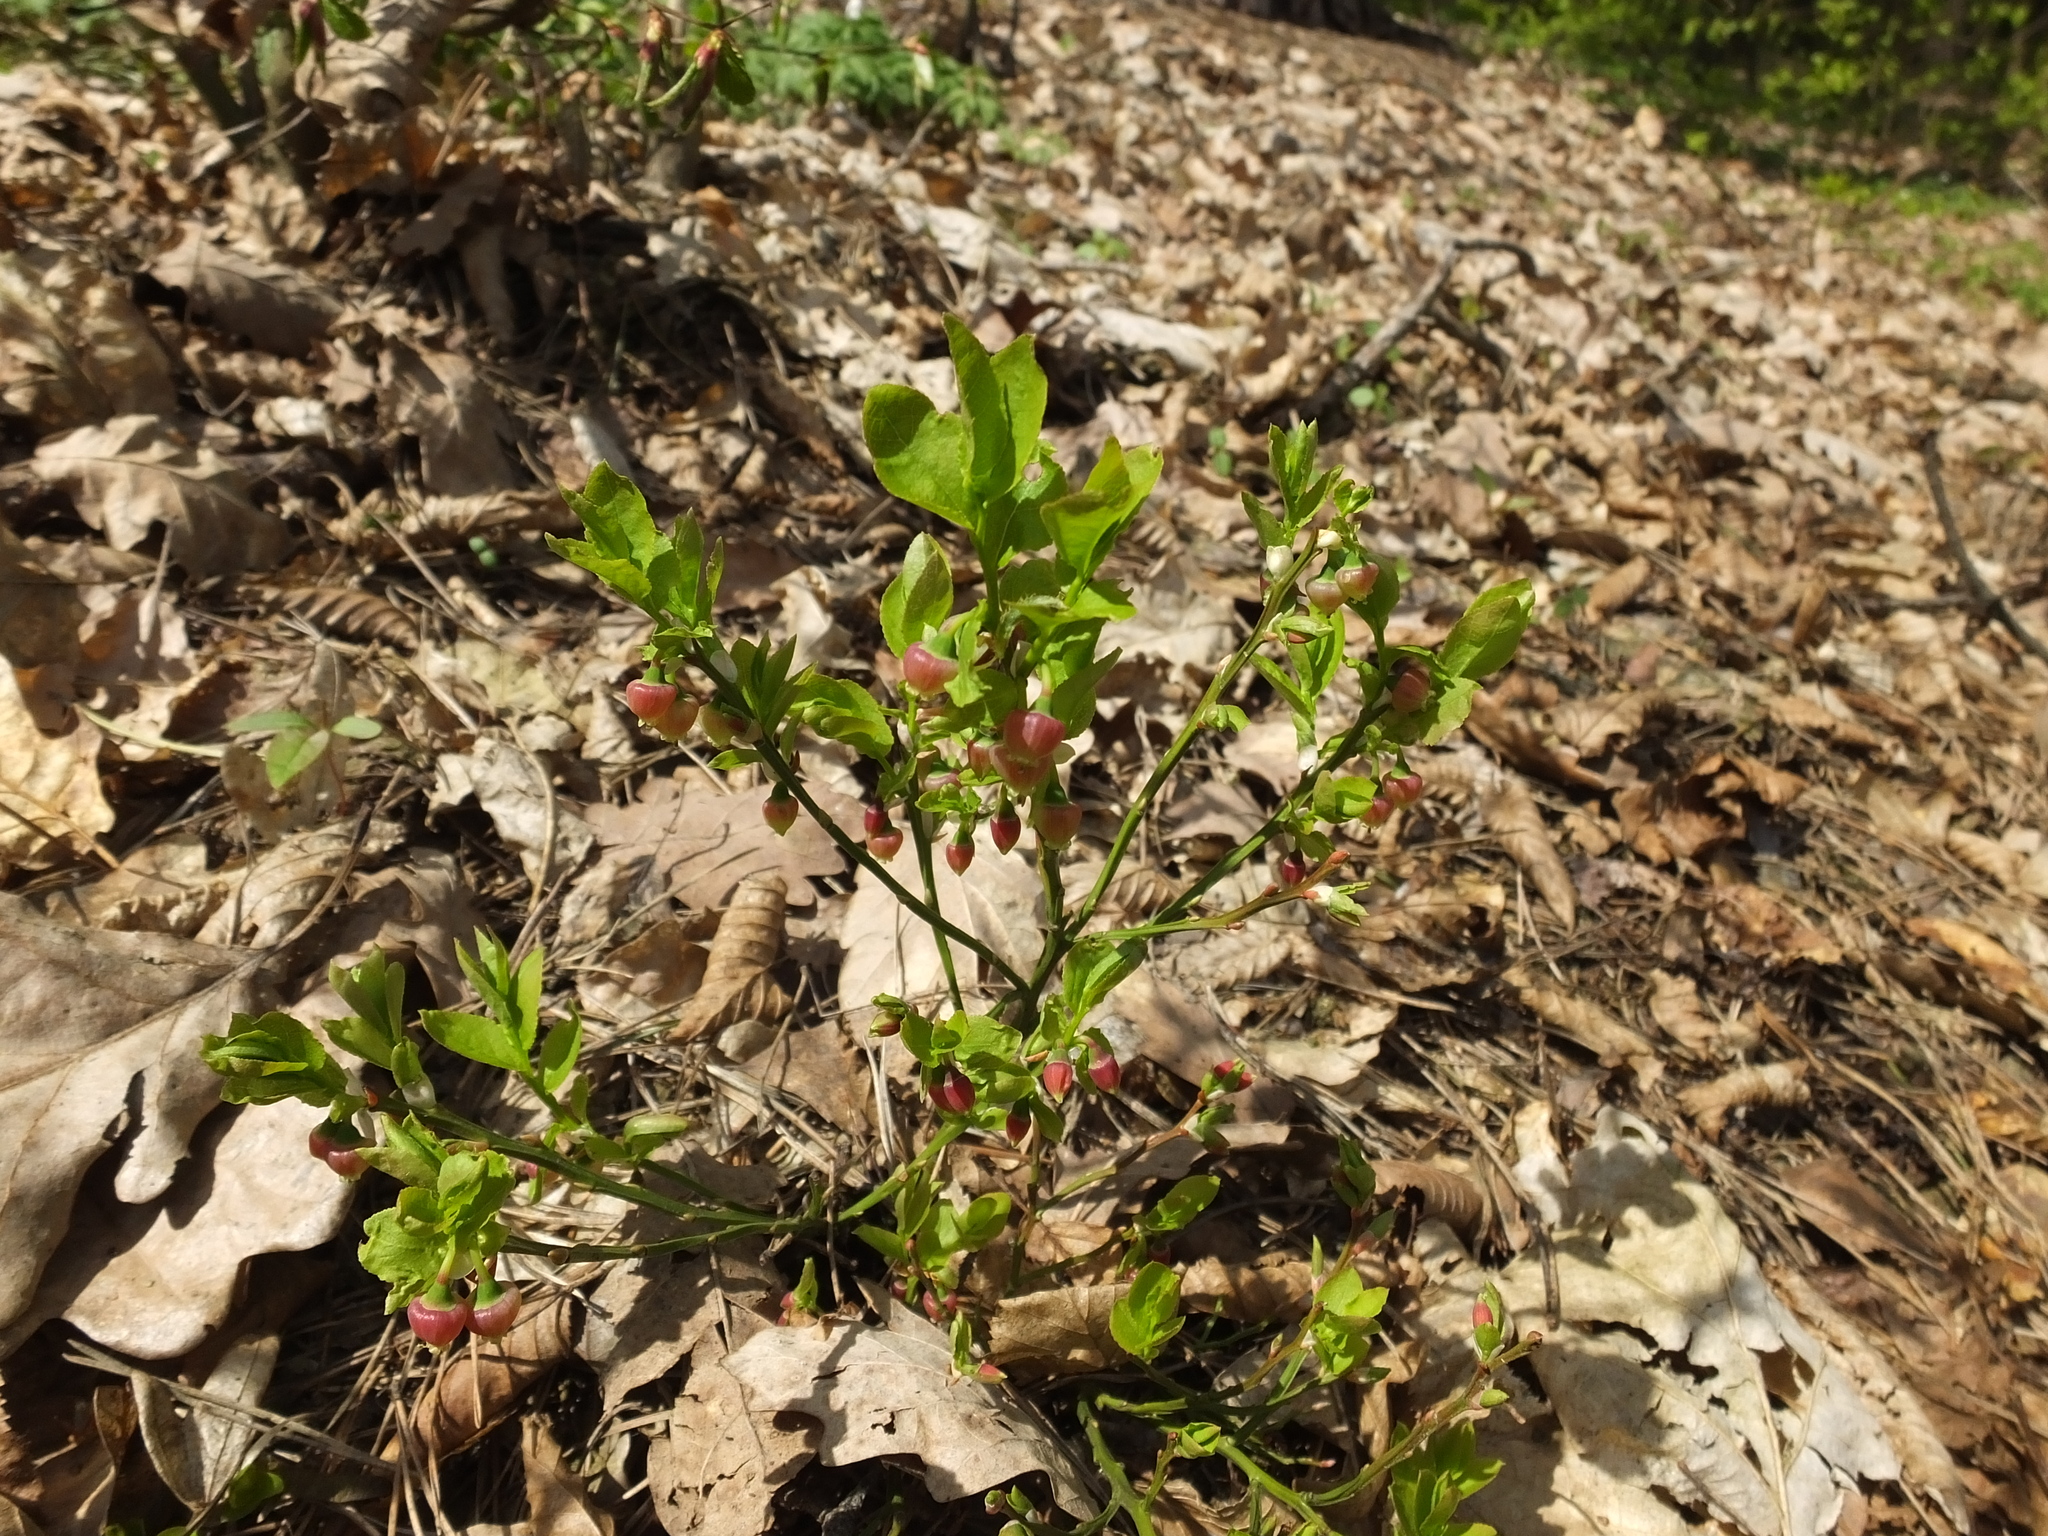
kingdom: Plantae
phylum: Tracheophyta
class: Magnoliopsida
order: Ericales
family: Ericaceae
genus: Vaccinium
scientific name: Vaccinium myrtillus
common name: Bilberry
